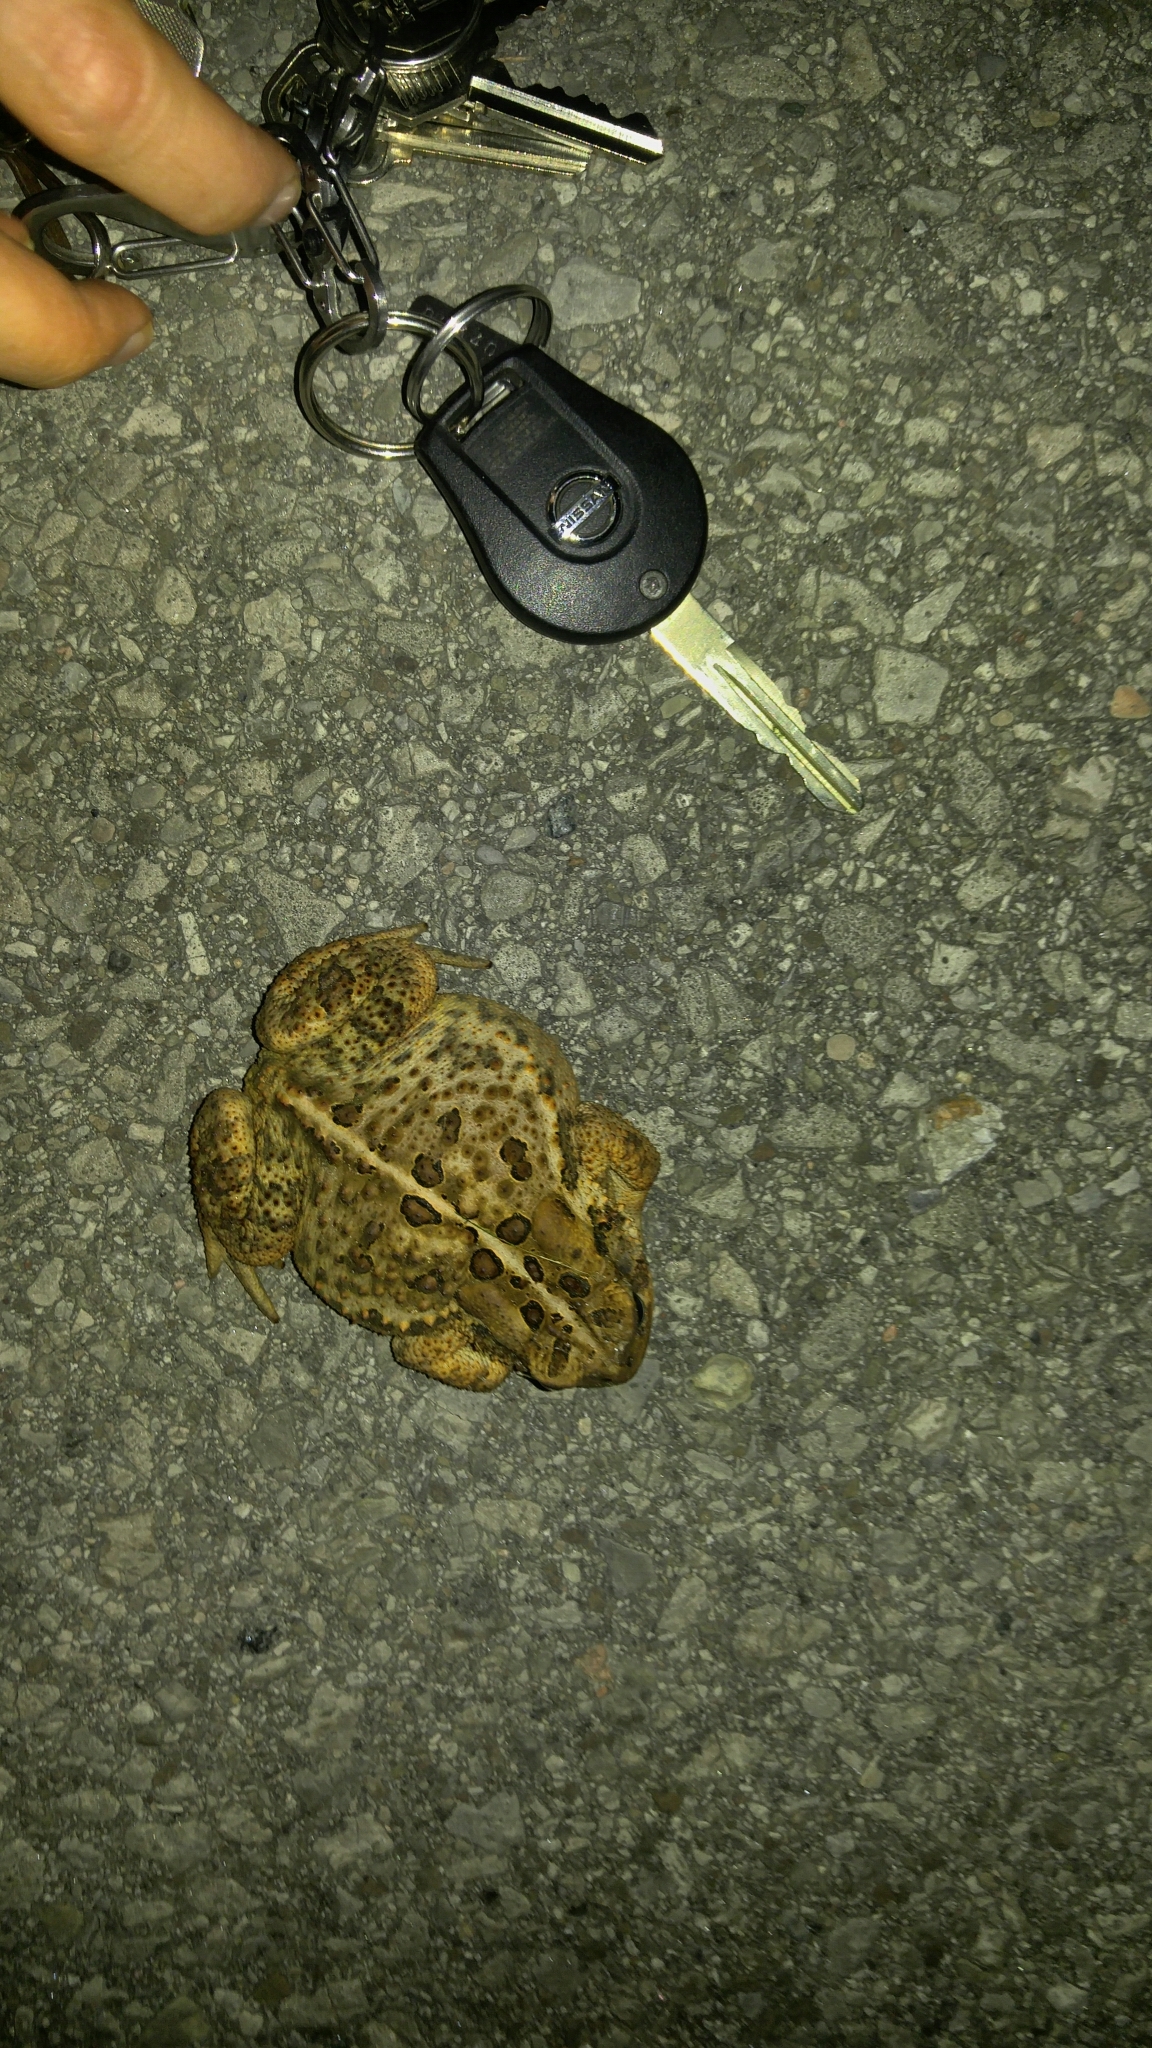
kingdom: Animalia
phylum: Chordata
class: Amphibia
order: Anura
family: Bufonidae
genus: Anaxyrus
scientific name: Anaxyrus americanus
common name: American toad
